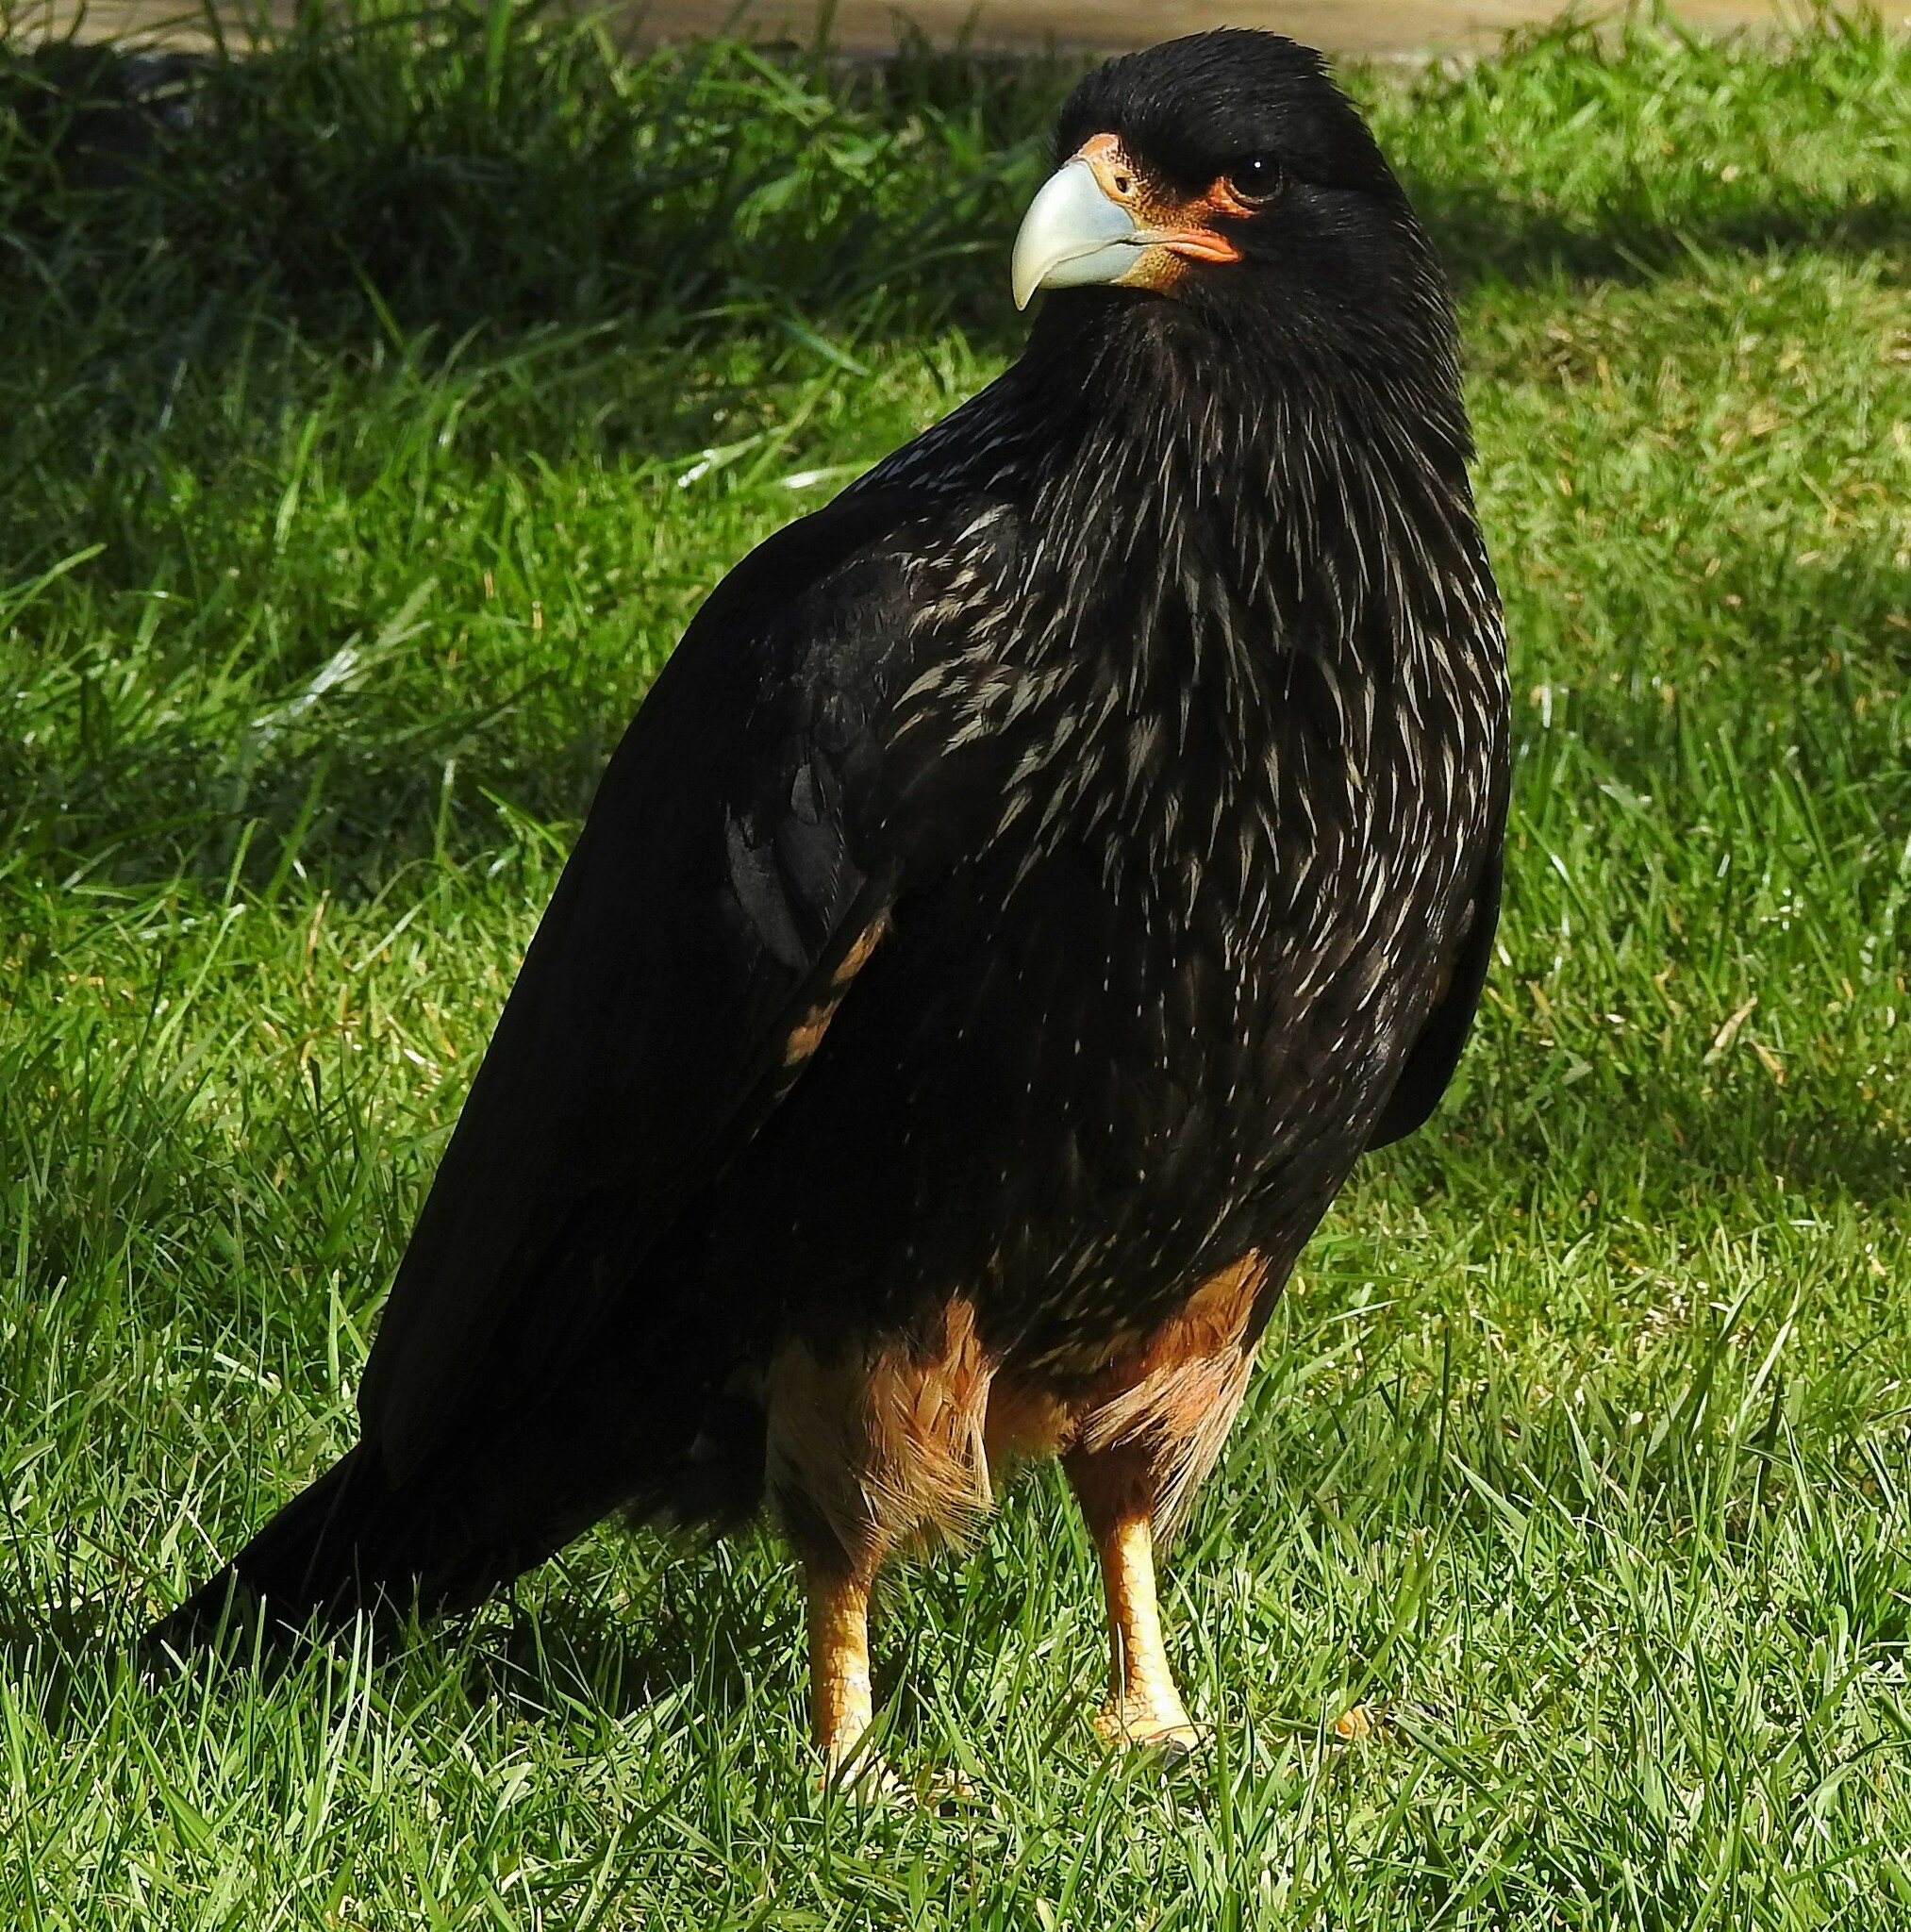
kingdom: Animalia
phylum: Chordata
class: Aves
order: Falconiformes
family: Falconidae
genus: Daptrius
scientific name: Daptrius
